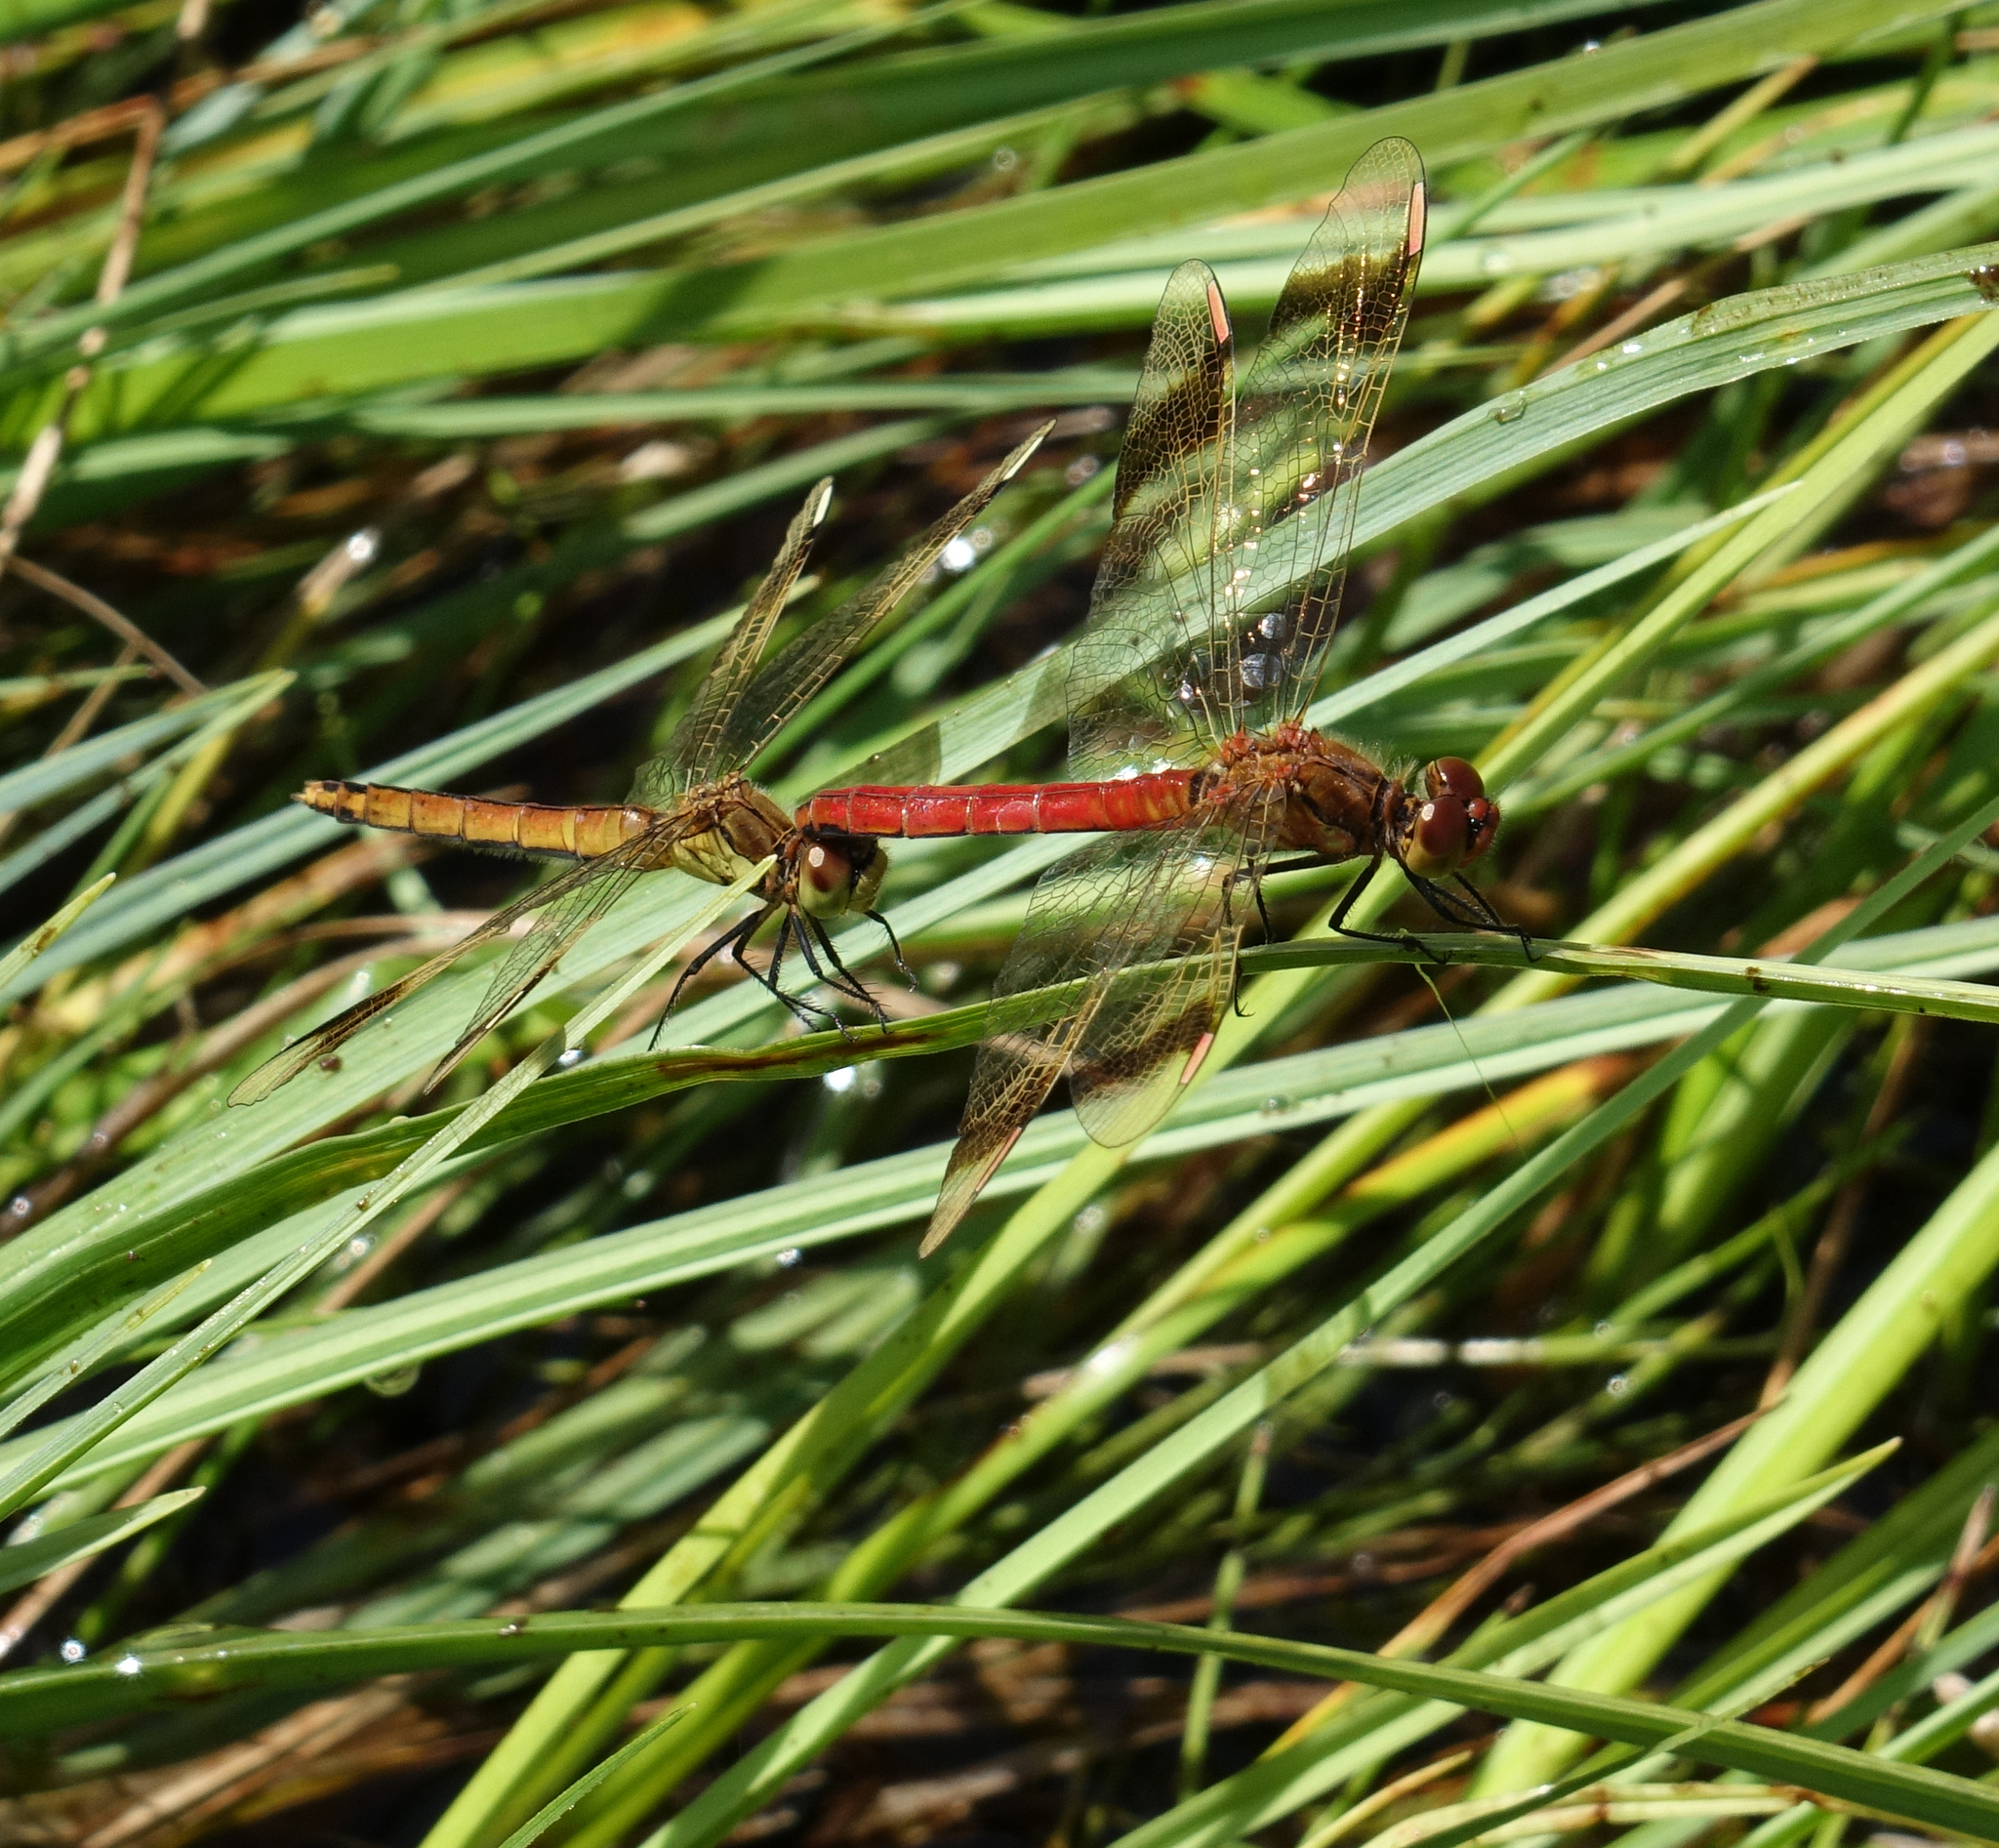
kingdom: Animalia
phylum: Arthropoda
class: Insecta
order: Odonata
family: Libellulidae
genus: Sympetrum
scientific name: Sympetrum pedemontanum
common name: Banded darter
